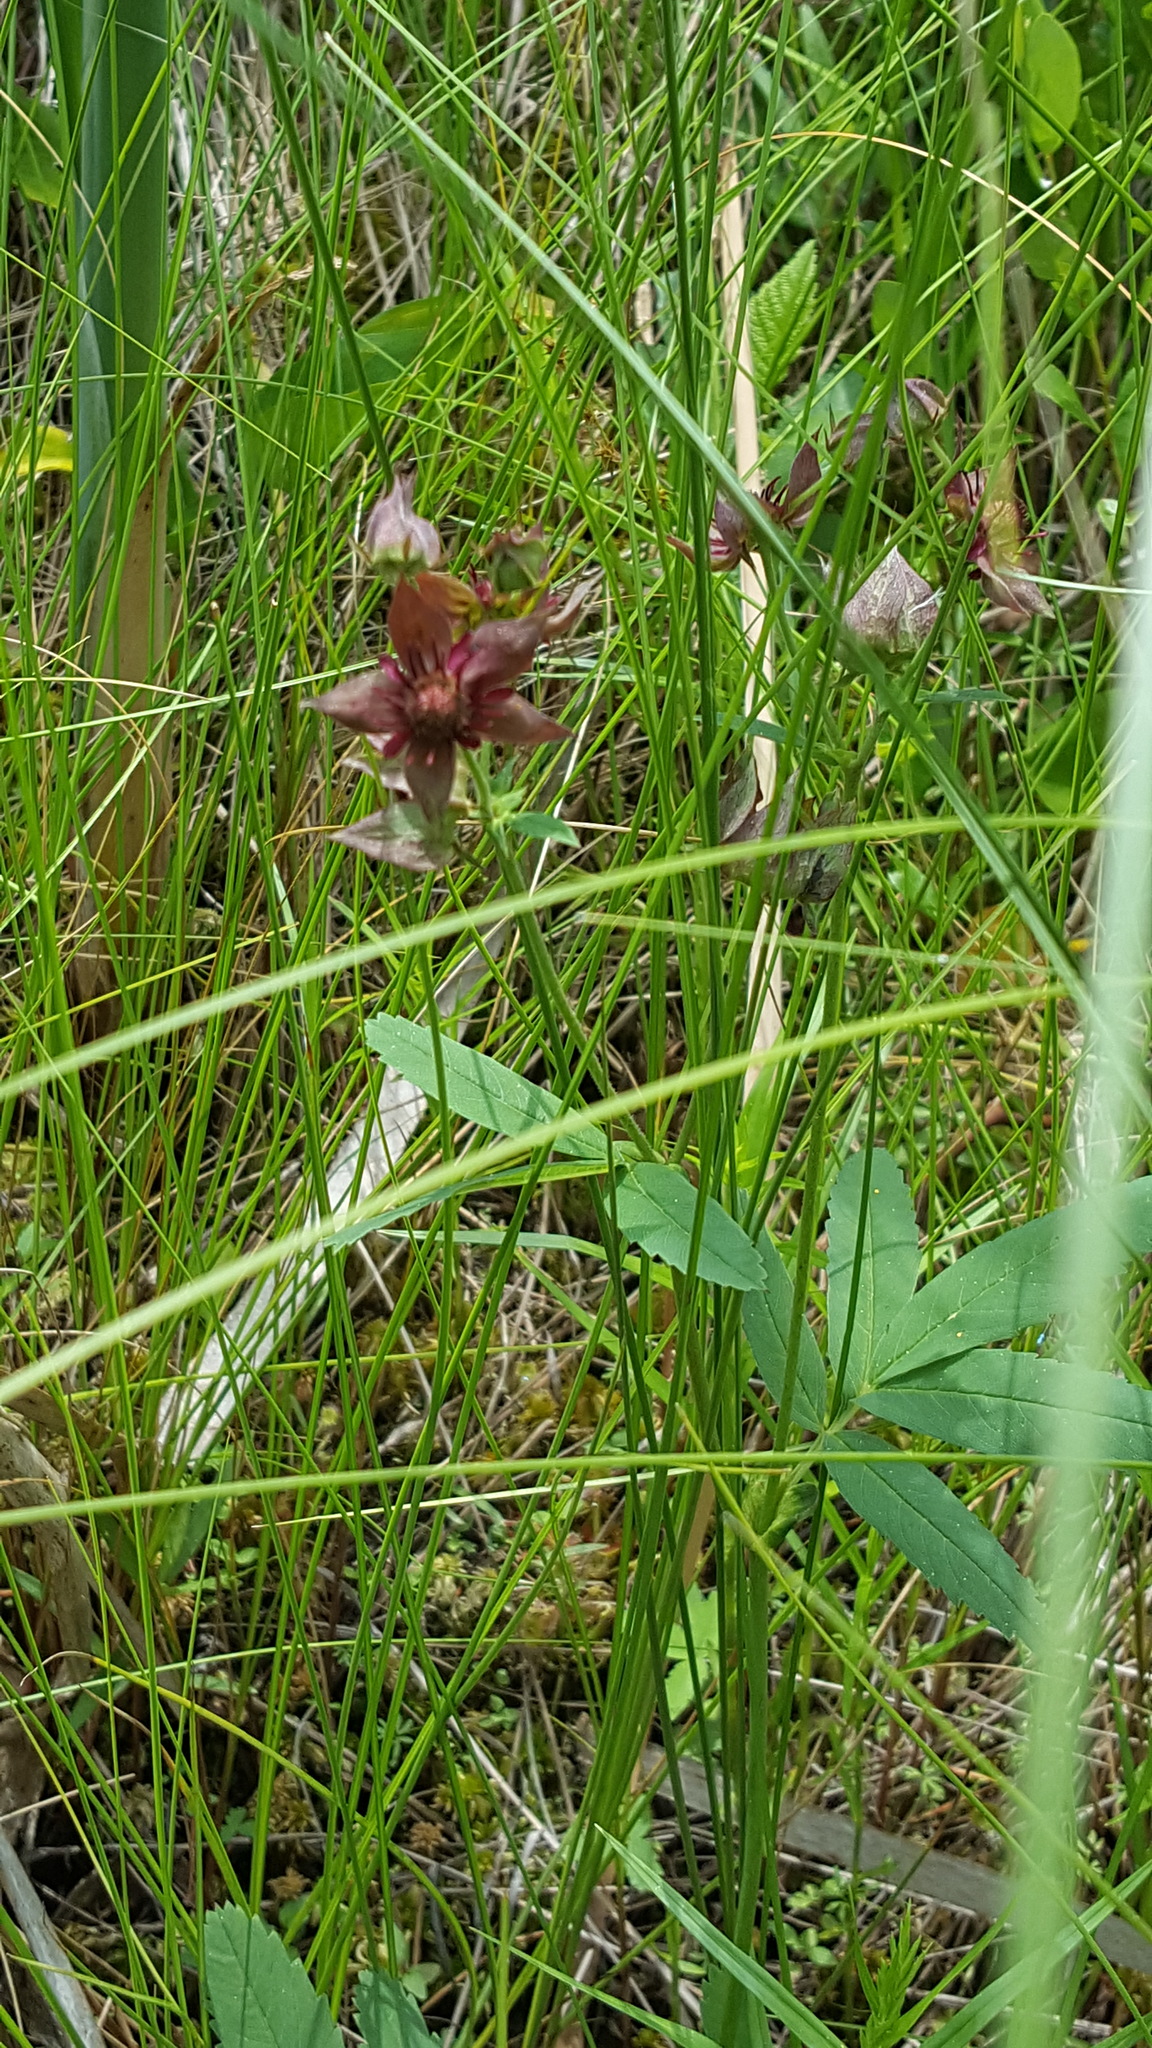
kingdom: Plantae
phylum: Tracheophyta
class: Magnoliopsida
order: Rosales
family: Rosaceae
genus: Comarum
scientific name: Comarum palustre
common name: Marsh cinquefoil
